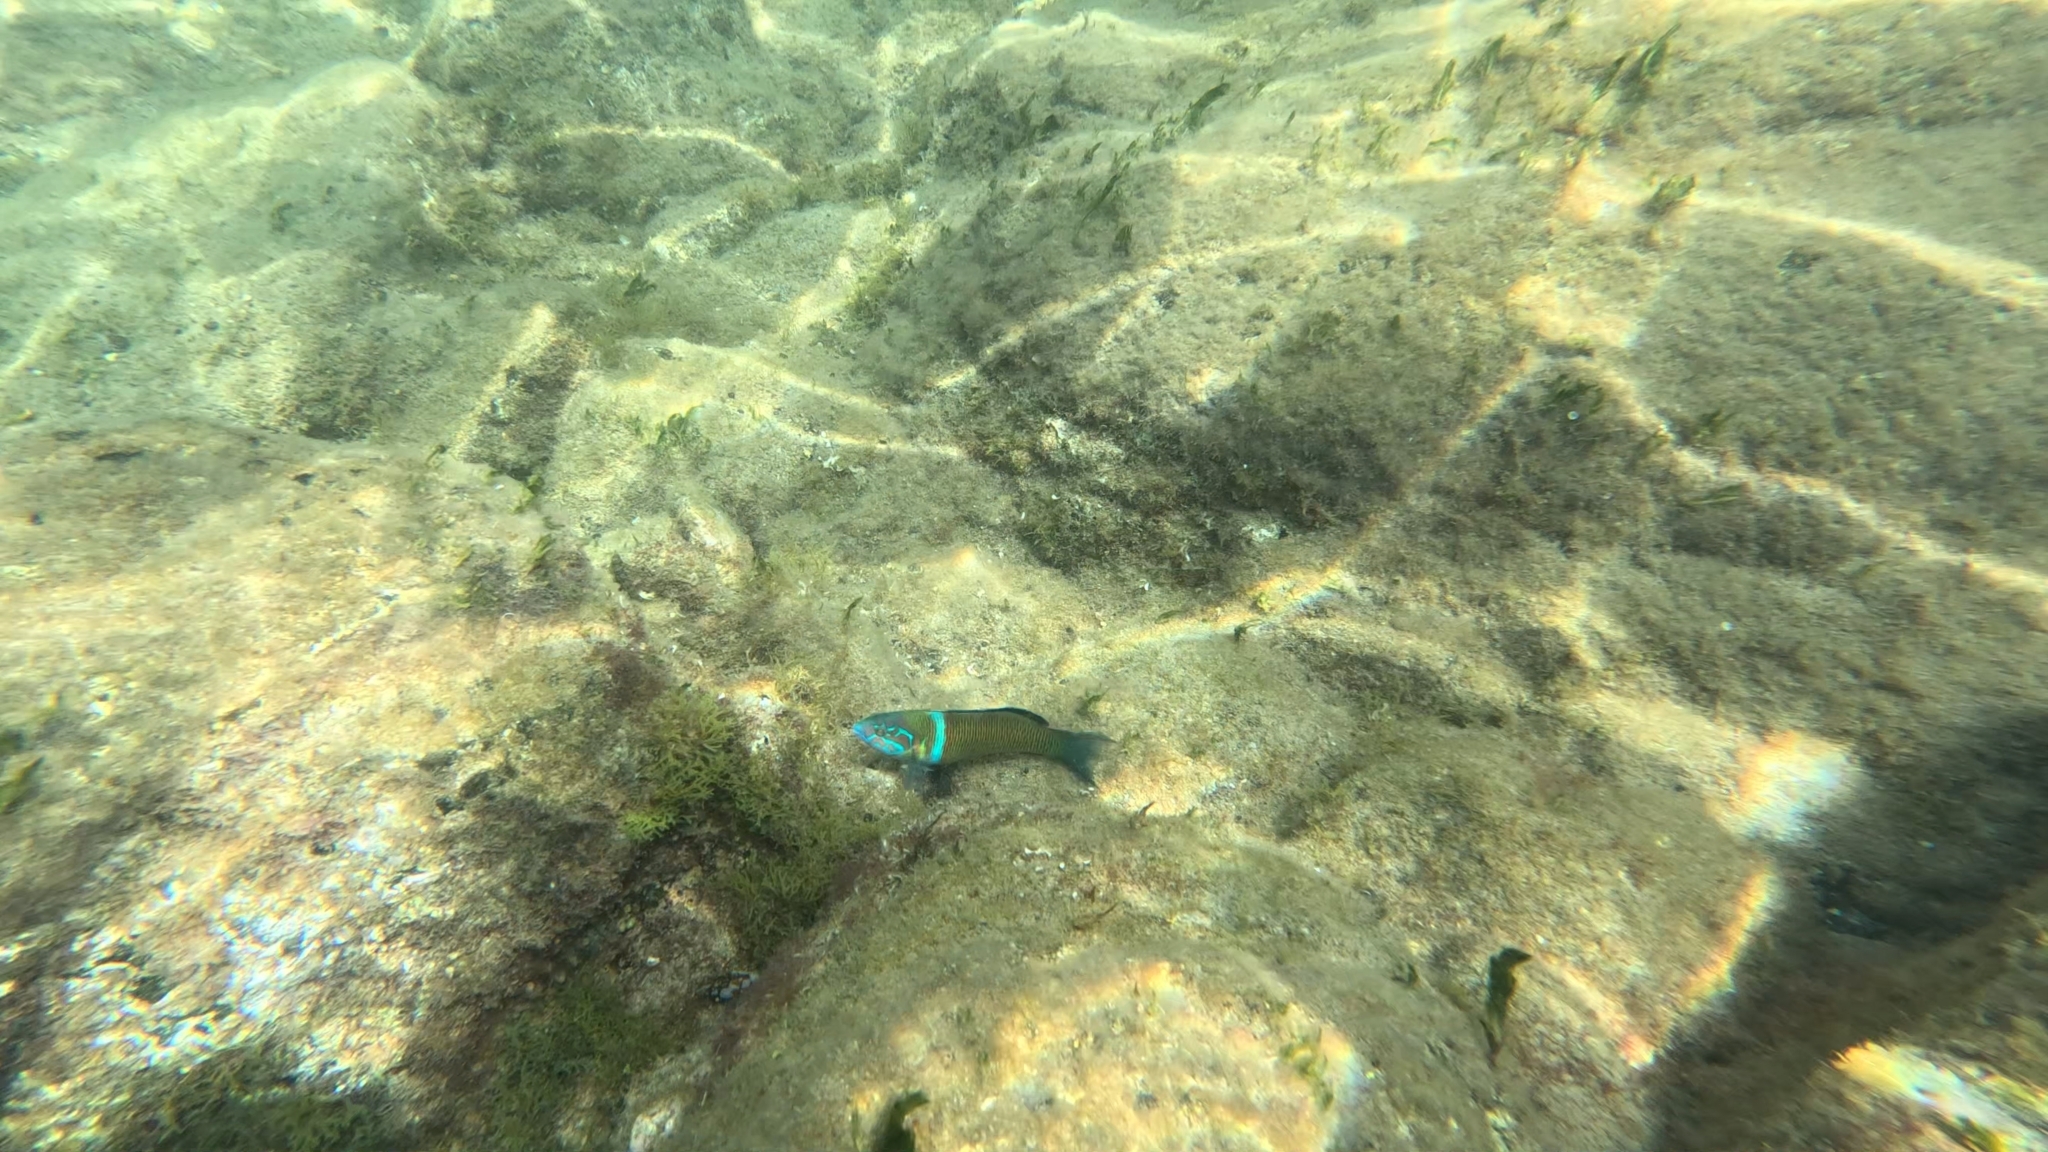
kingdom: Animalia
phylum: Chordata
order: Perciformes
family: Labridae
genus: Thalassoma
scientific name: Thalassoma pavo
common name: Ornate wrasse
